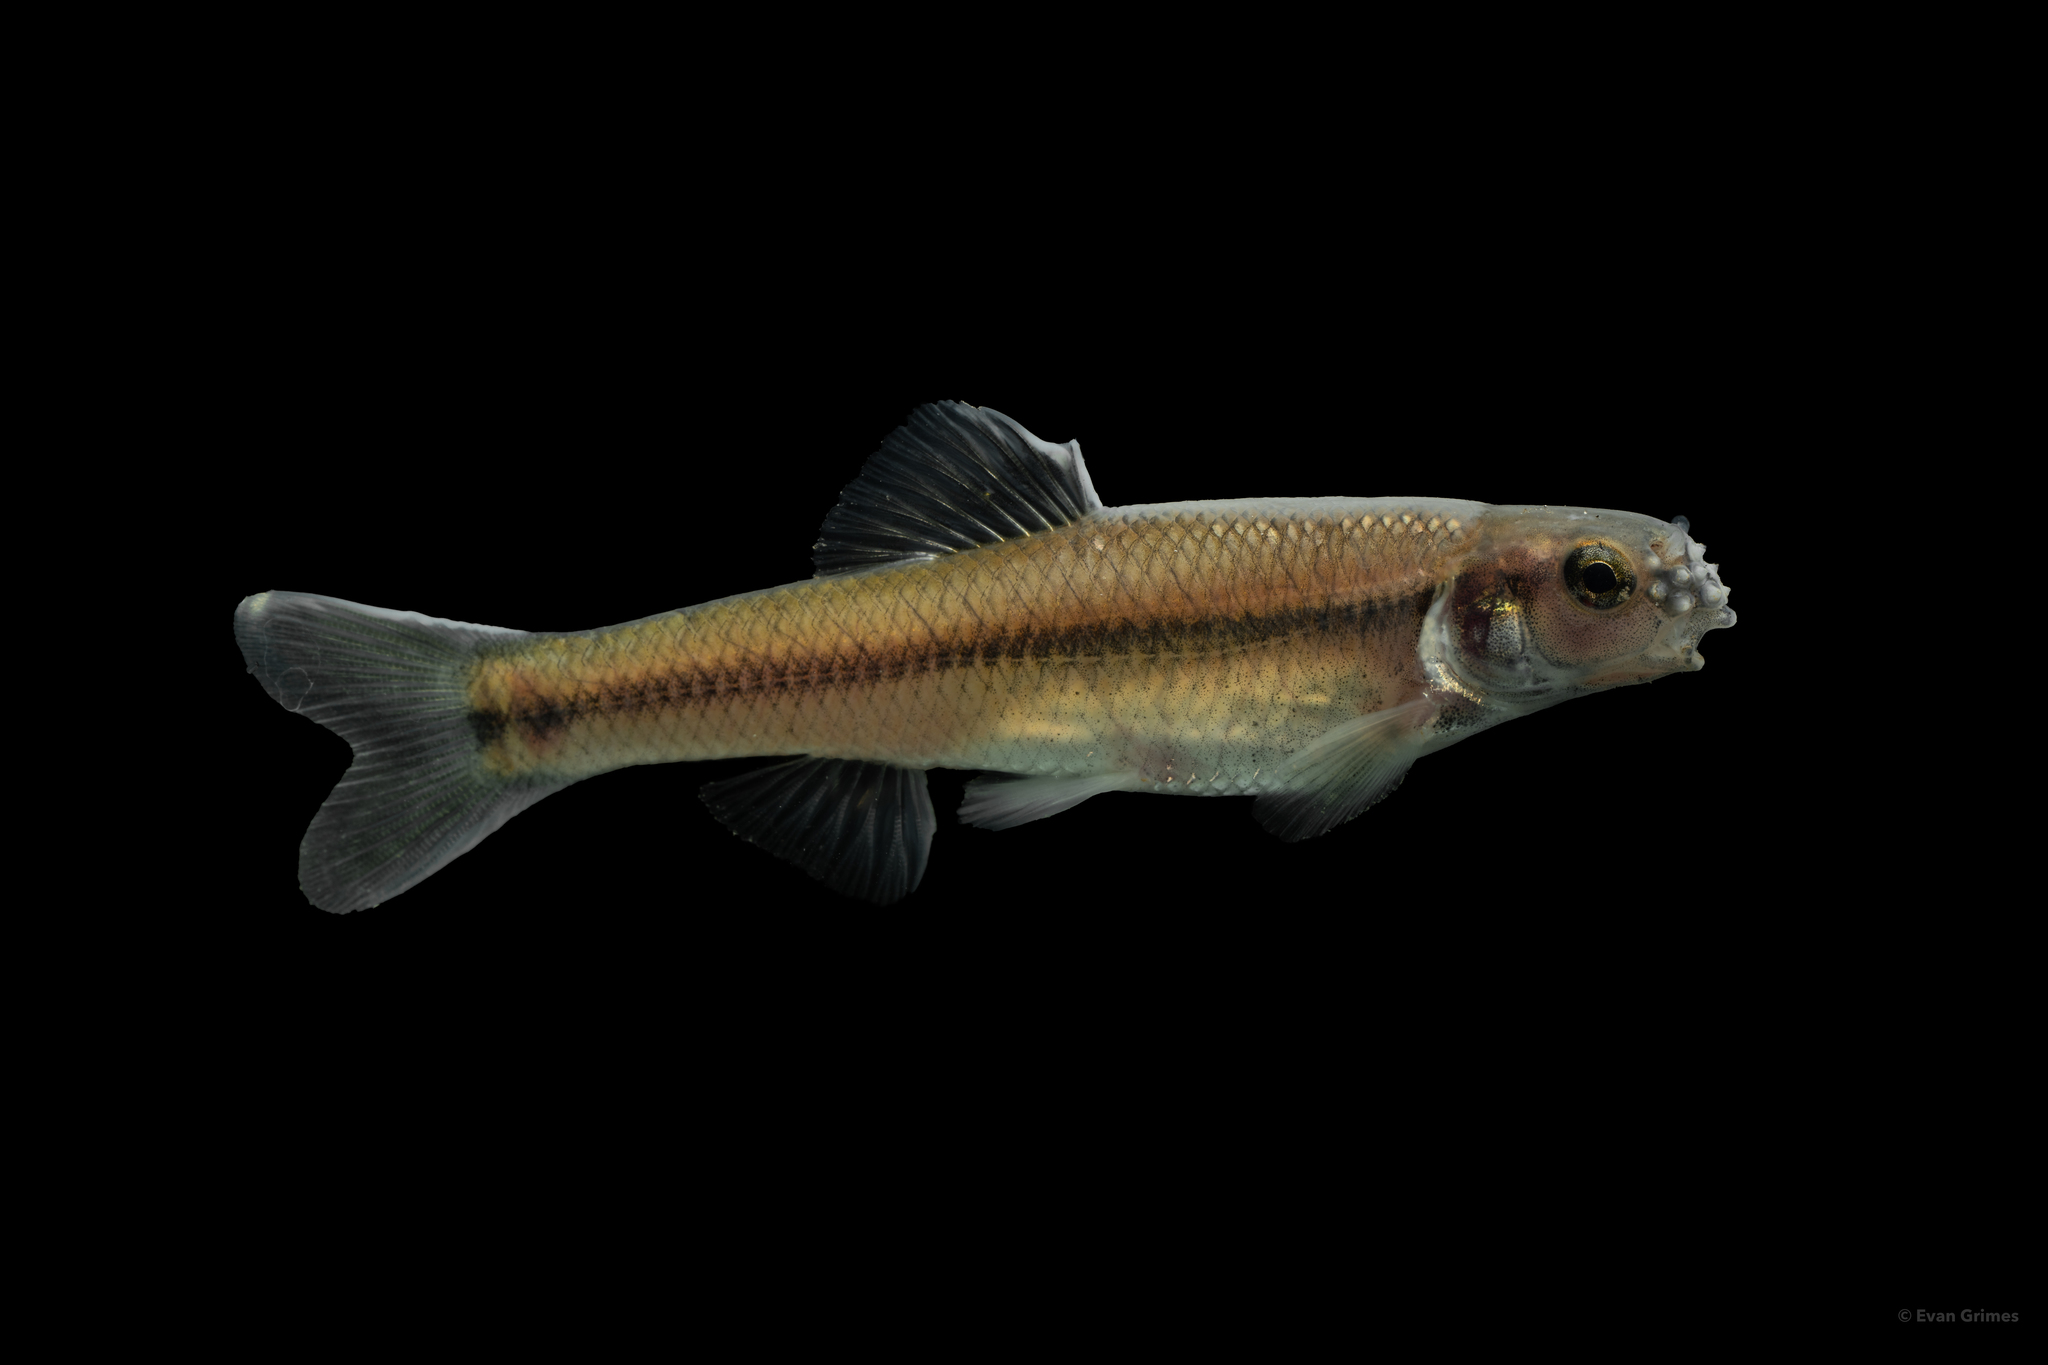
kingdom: Animalia
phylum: Chordata
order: Cypriniformes
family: Cyprinidae
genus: Pimephales
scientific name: Pimephales notatus
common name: Bluntnose minnow
